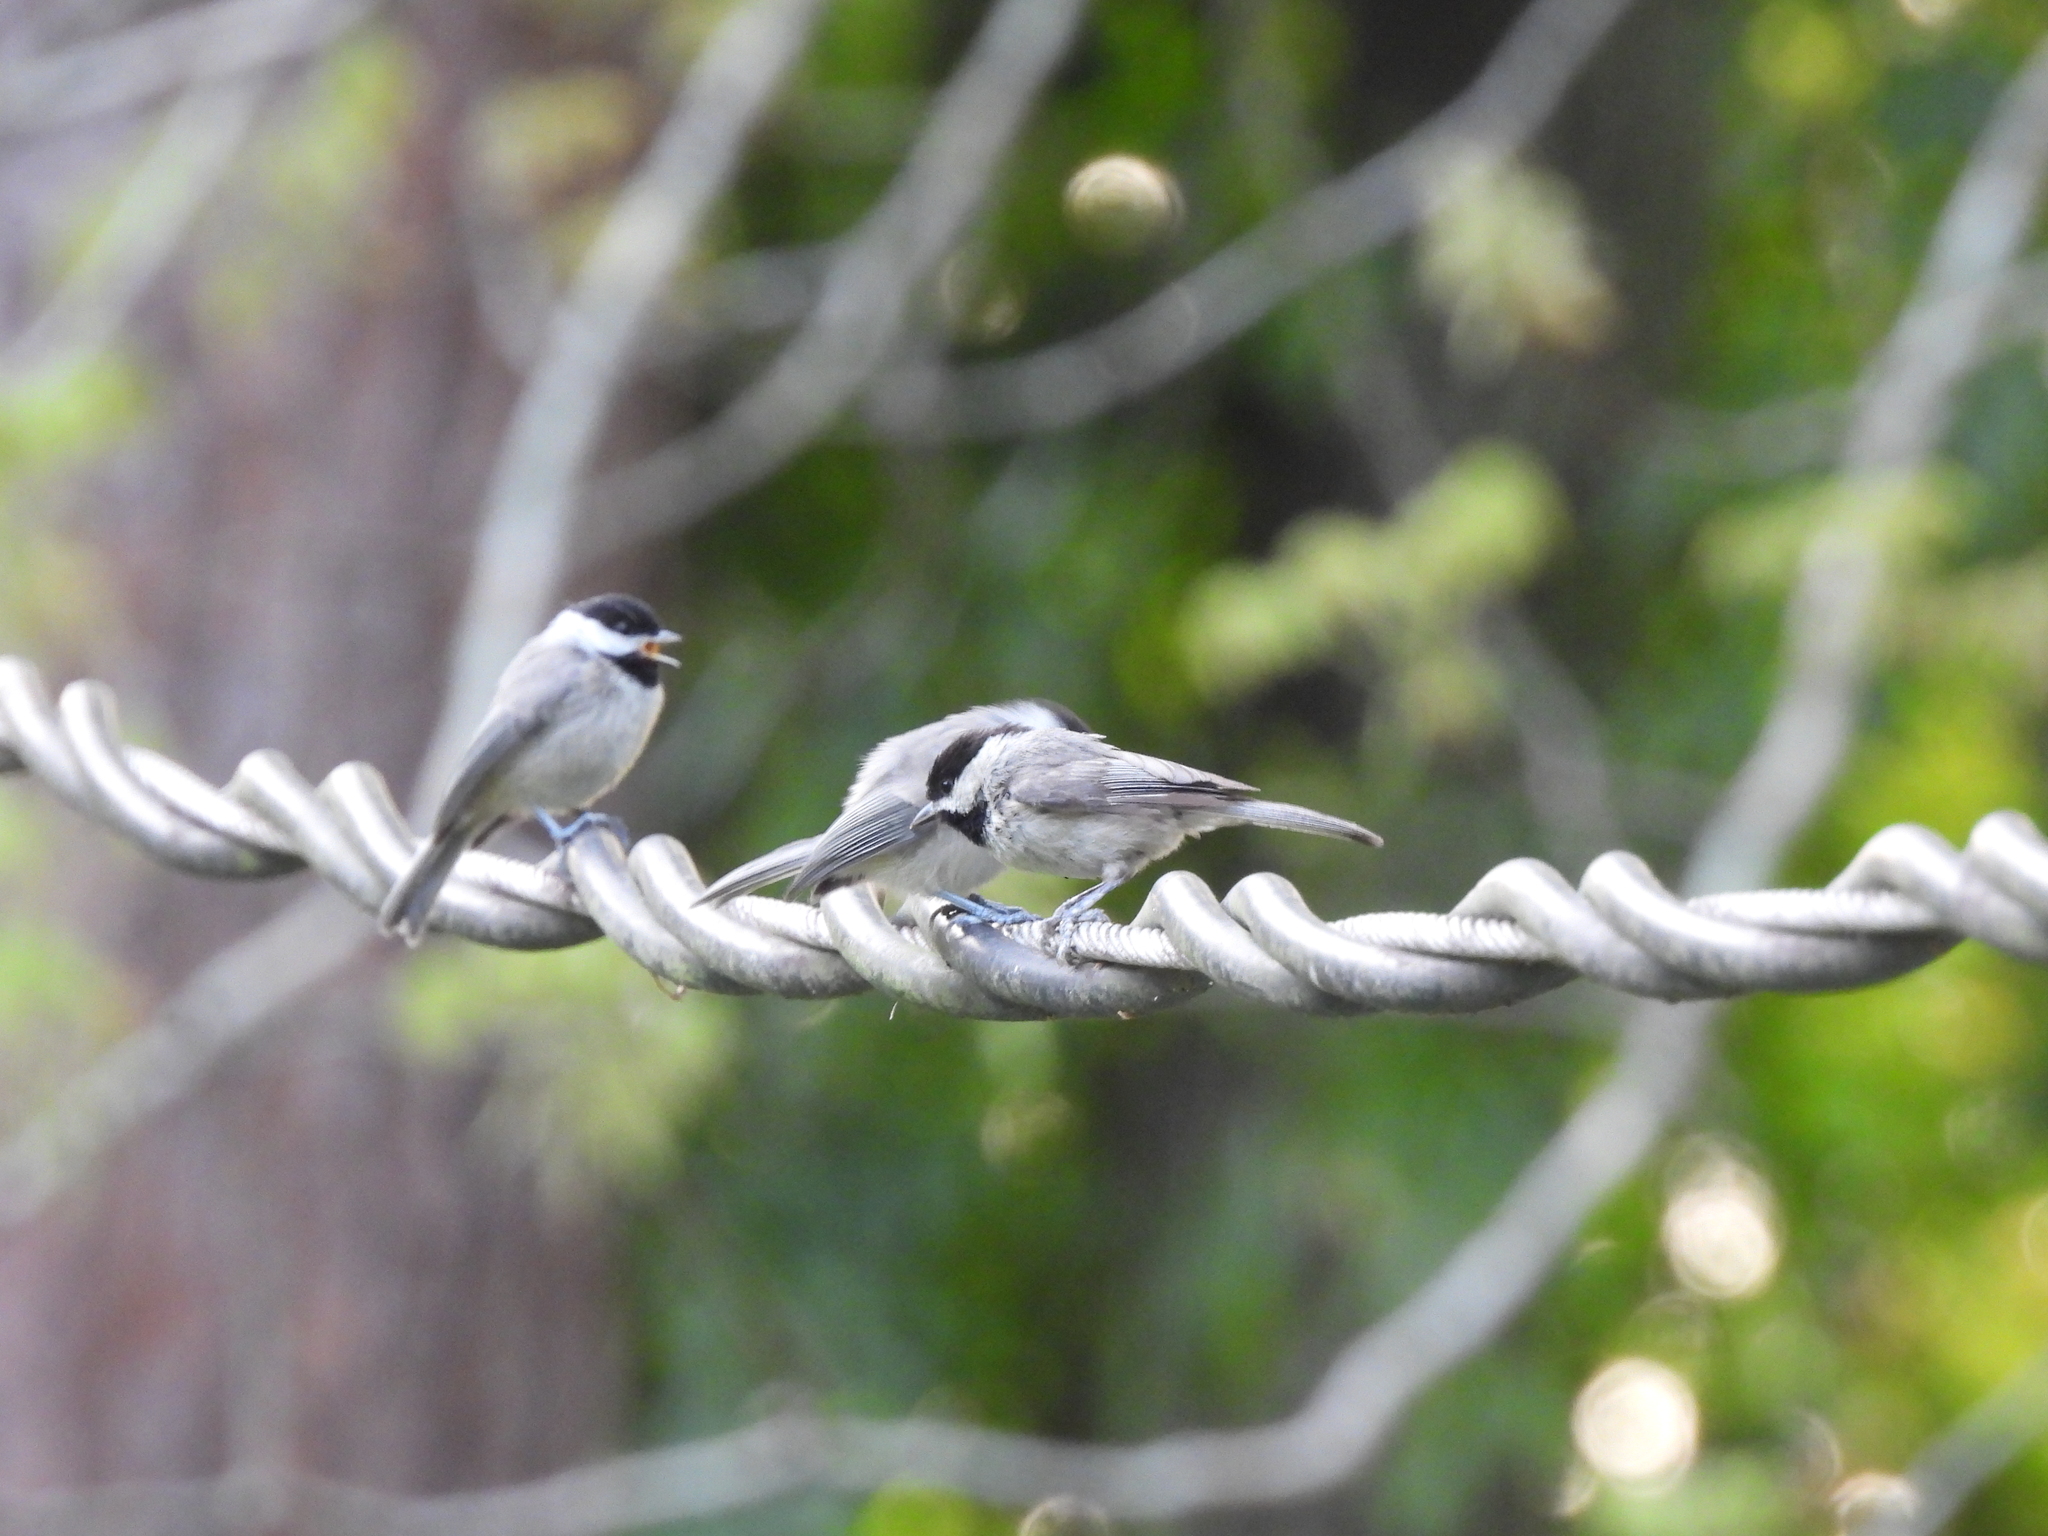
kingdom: Animalia
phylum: Chordata
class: Aves
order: Passeriformes
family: Paridae
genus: Poecile
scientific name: Poecile carolinensis
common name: Carolina chickadee
